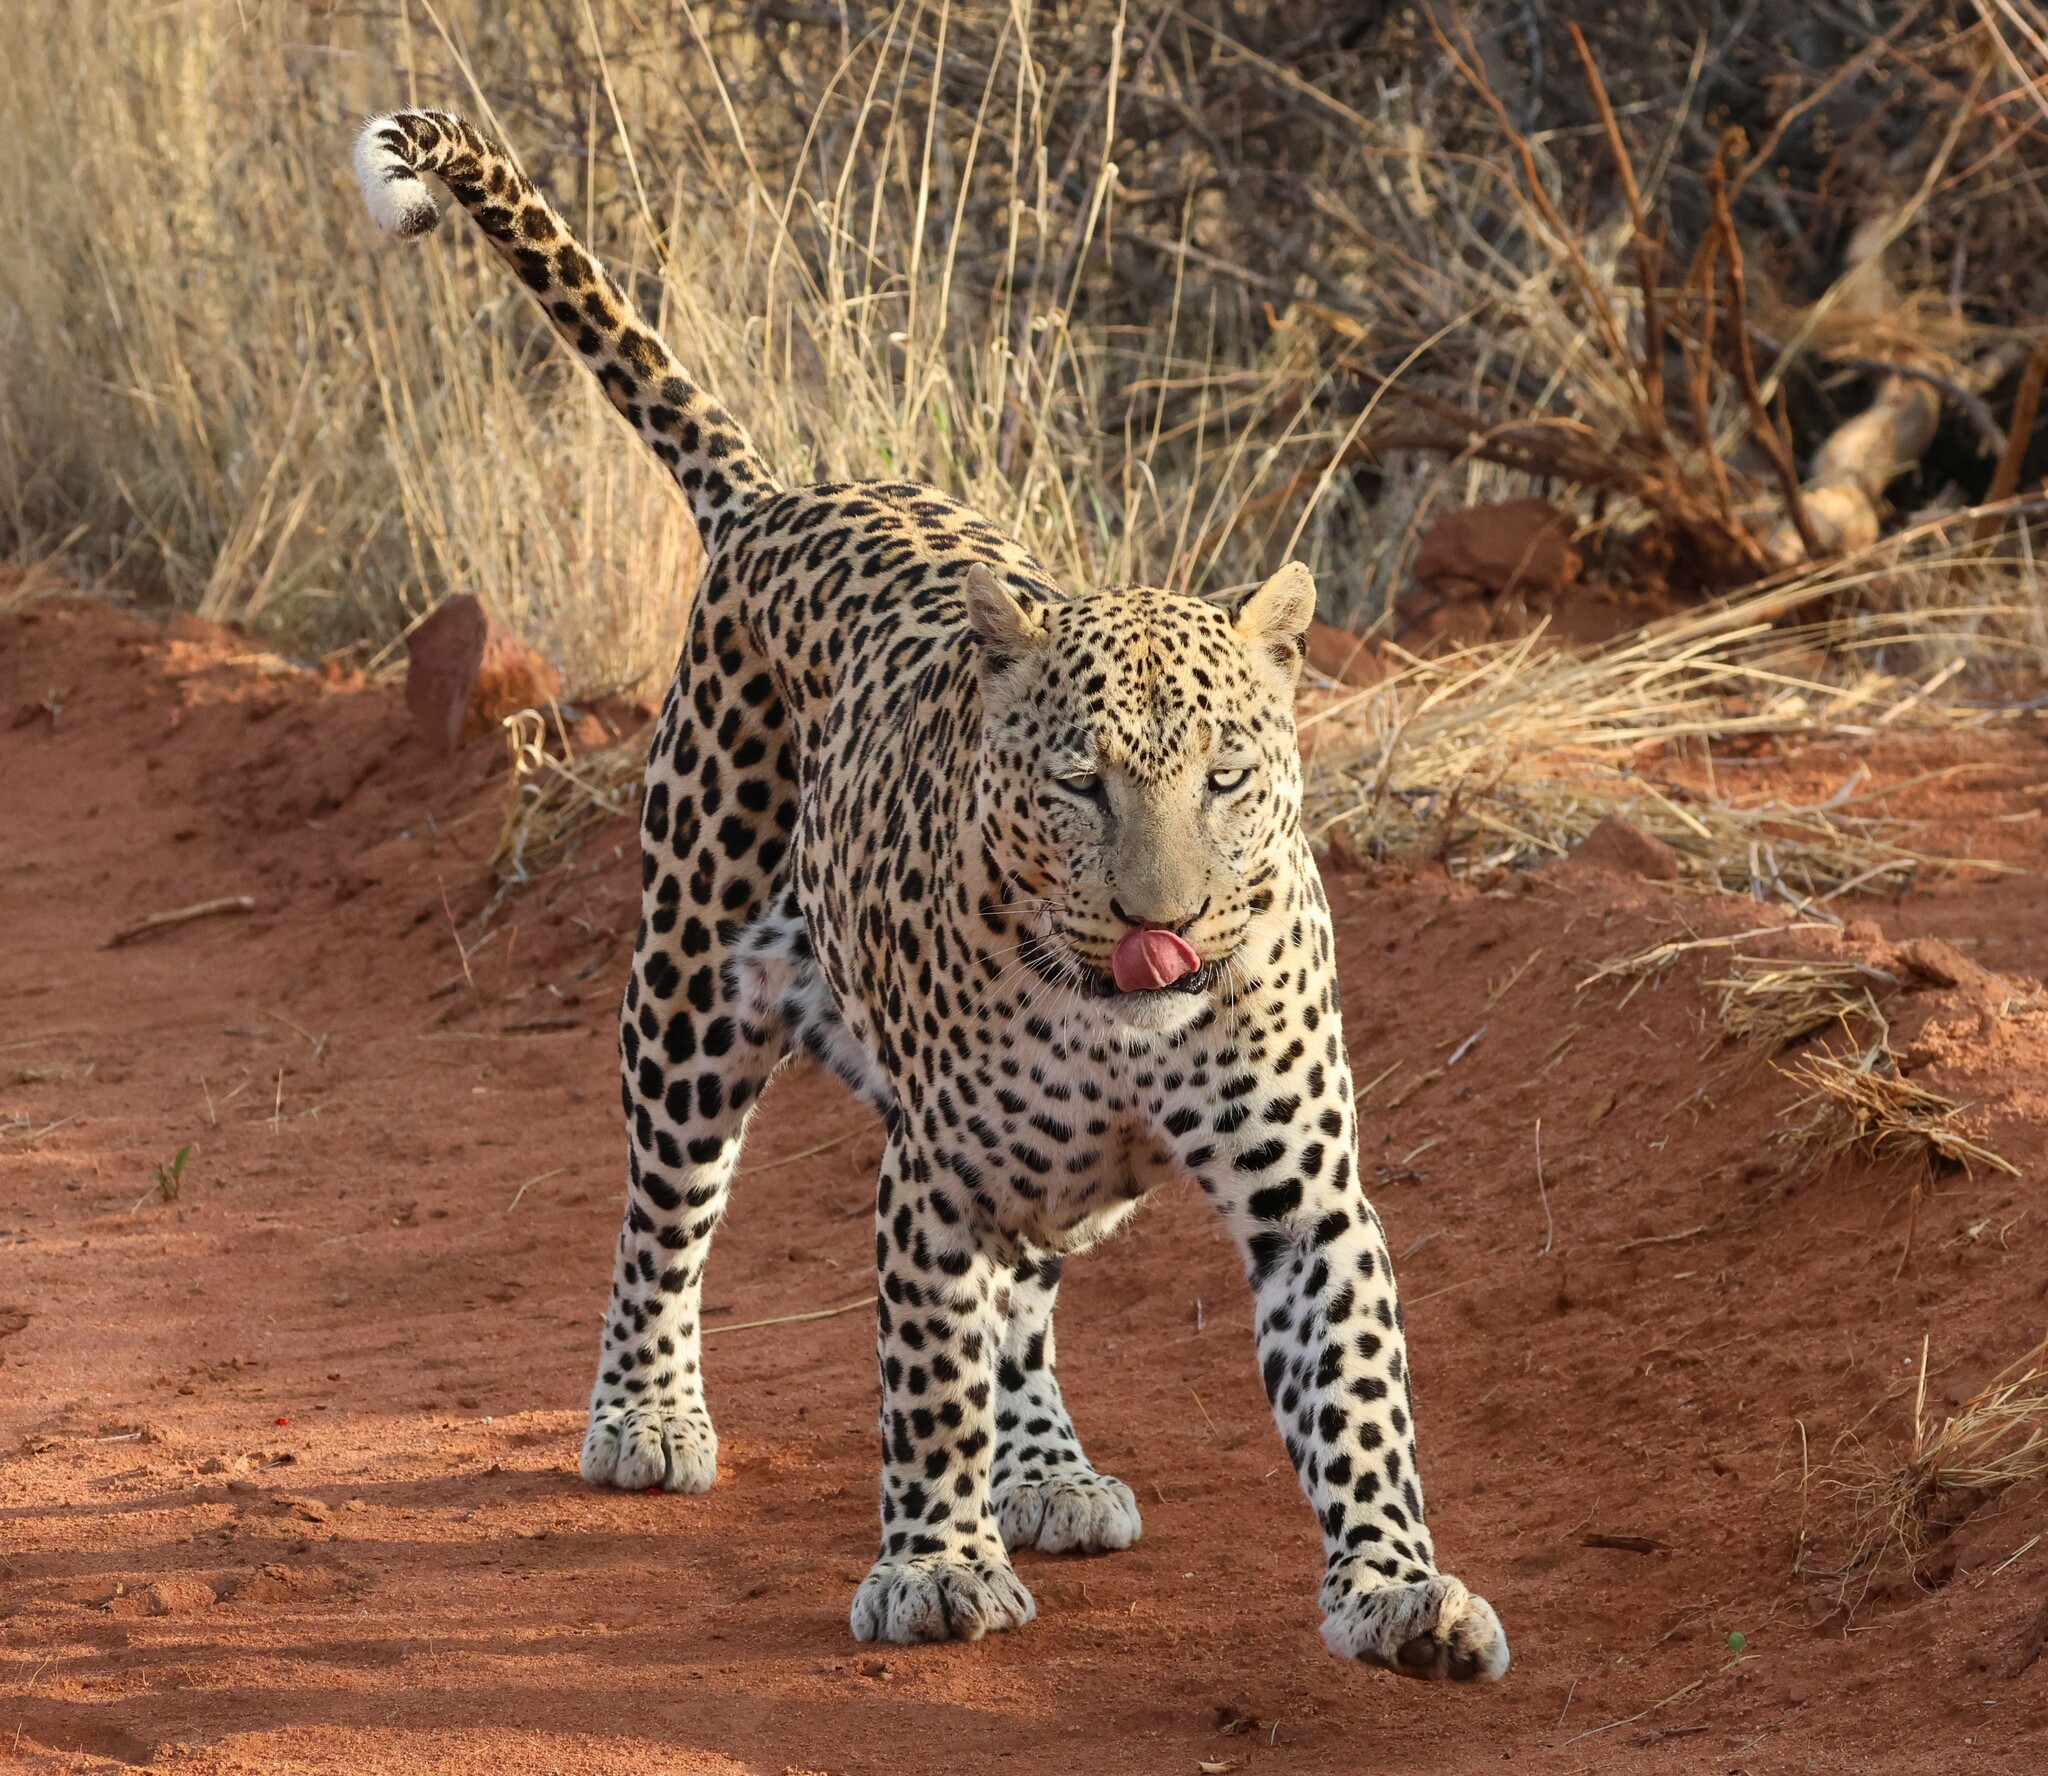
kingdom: Animalia
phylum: Chordata
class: Mammalia
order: Carnivora
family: Felidae
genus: Panthera
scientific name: Panthera pardus
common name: Leopard
